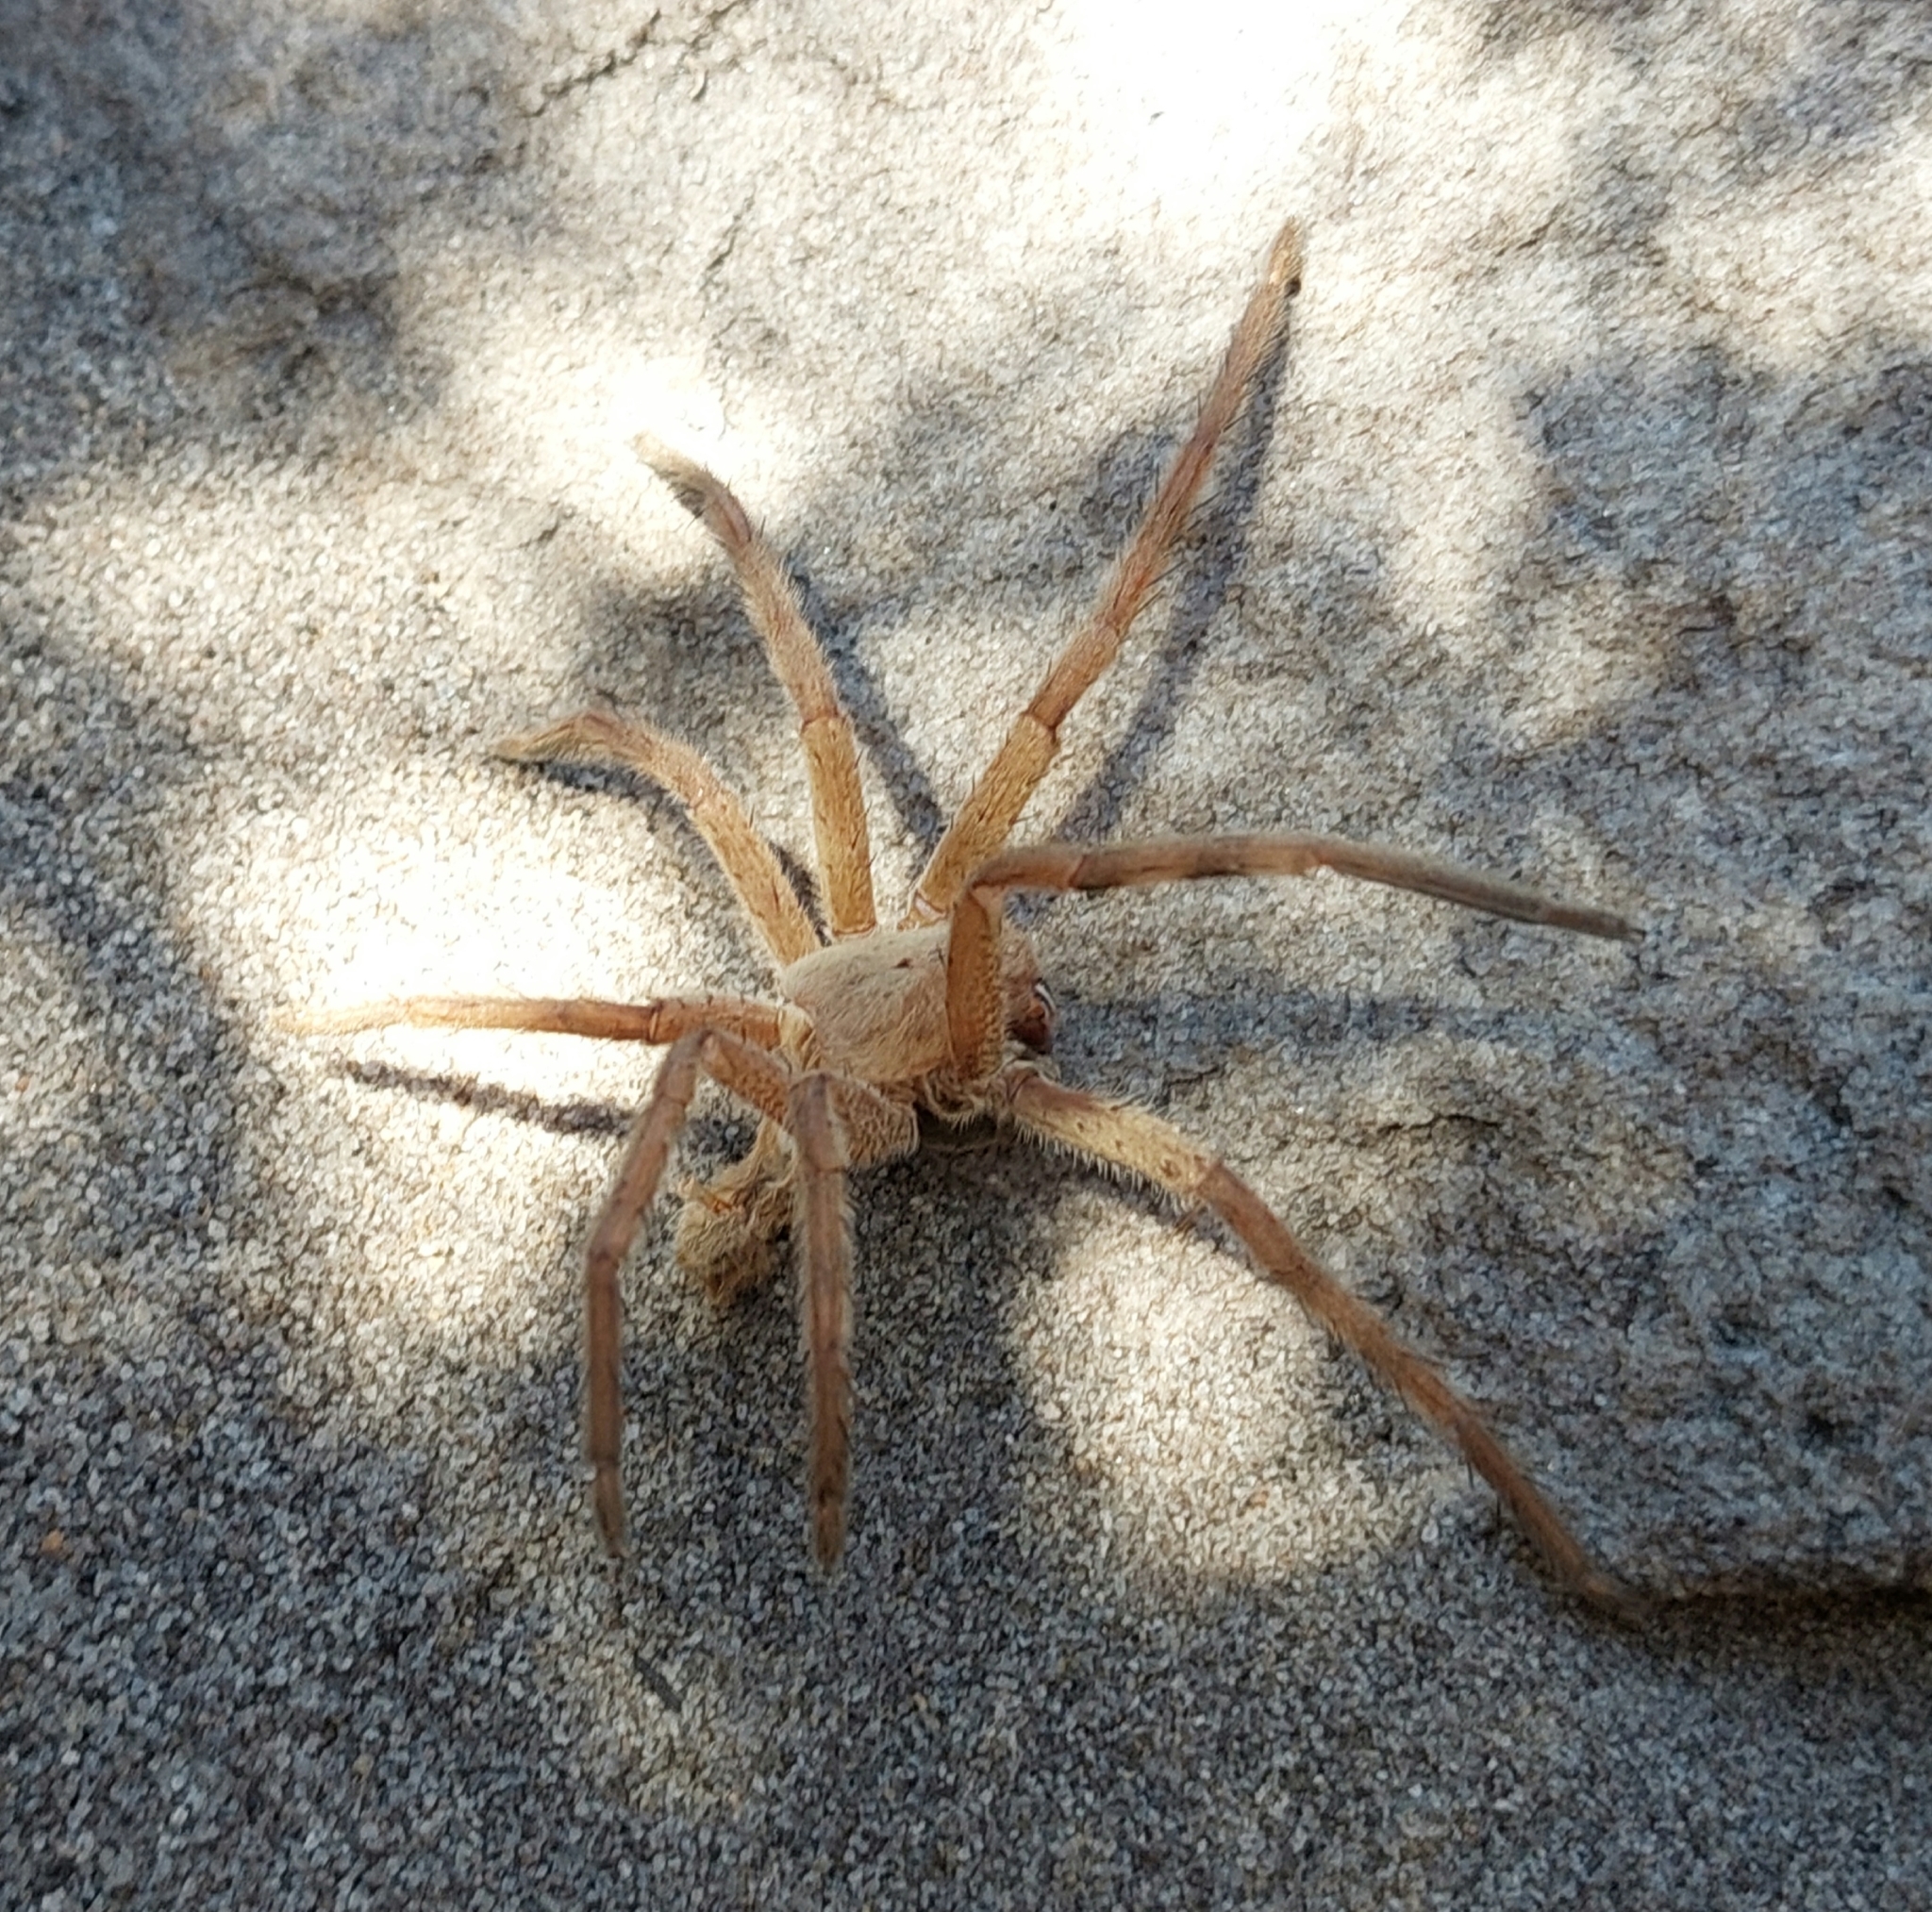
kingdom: Animalia
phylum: Arthropoda
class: Arachnida
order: Araneae
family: Sparassidae
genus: Palystes
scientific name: Palystes superciliosus
